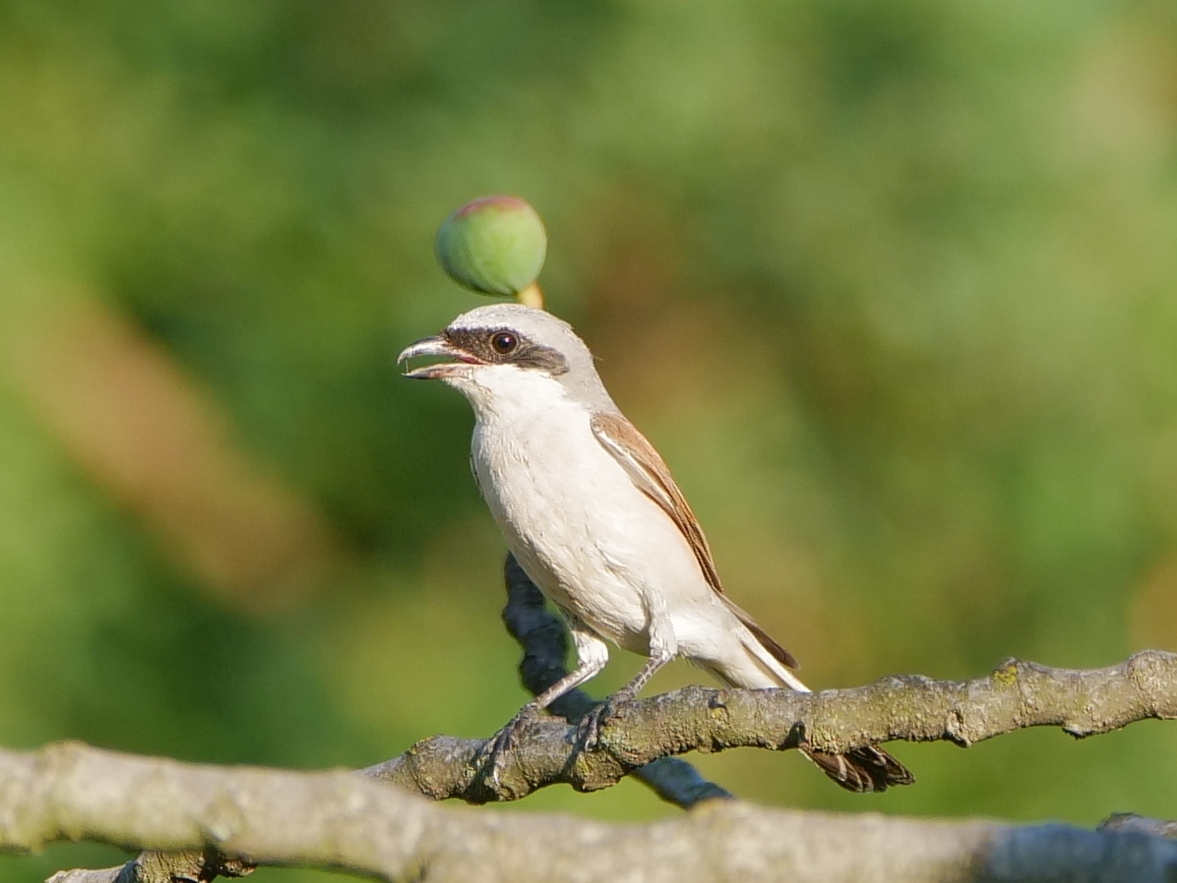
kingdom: Animalia
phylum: Chordata
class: Aves
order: Passeriformes
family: Laniidae
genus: Lanius
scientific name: Lanius collurio
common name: Red-backed shrike
